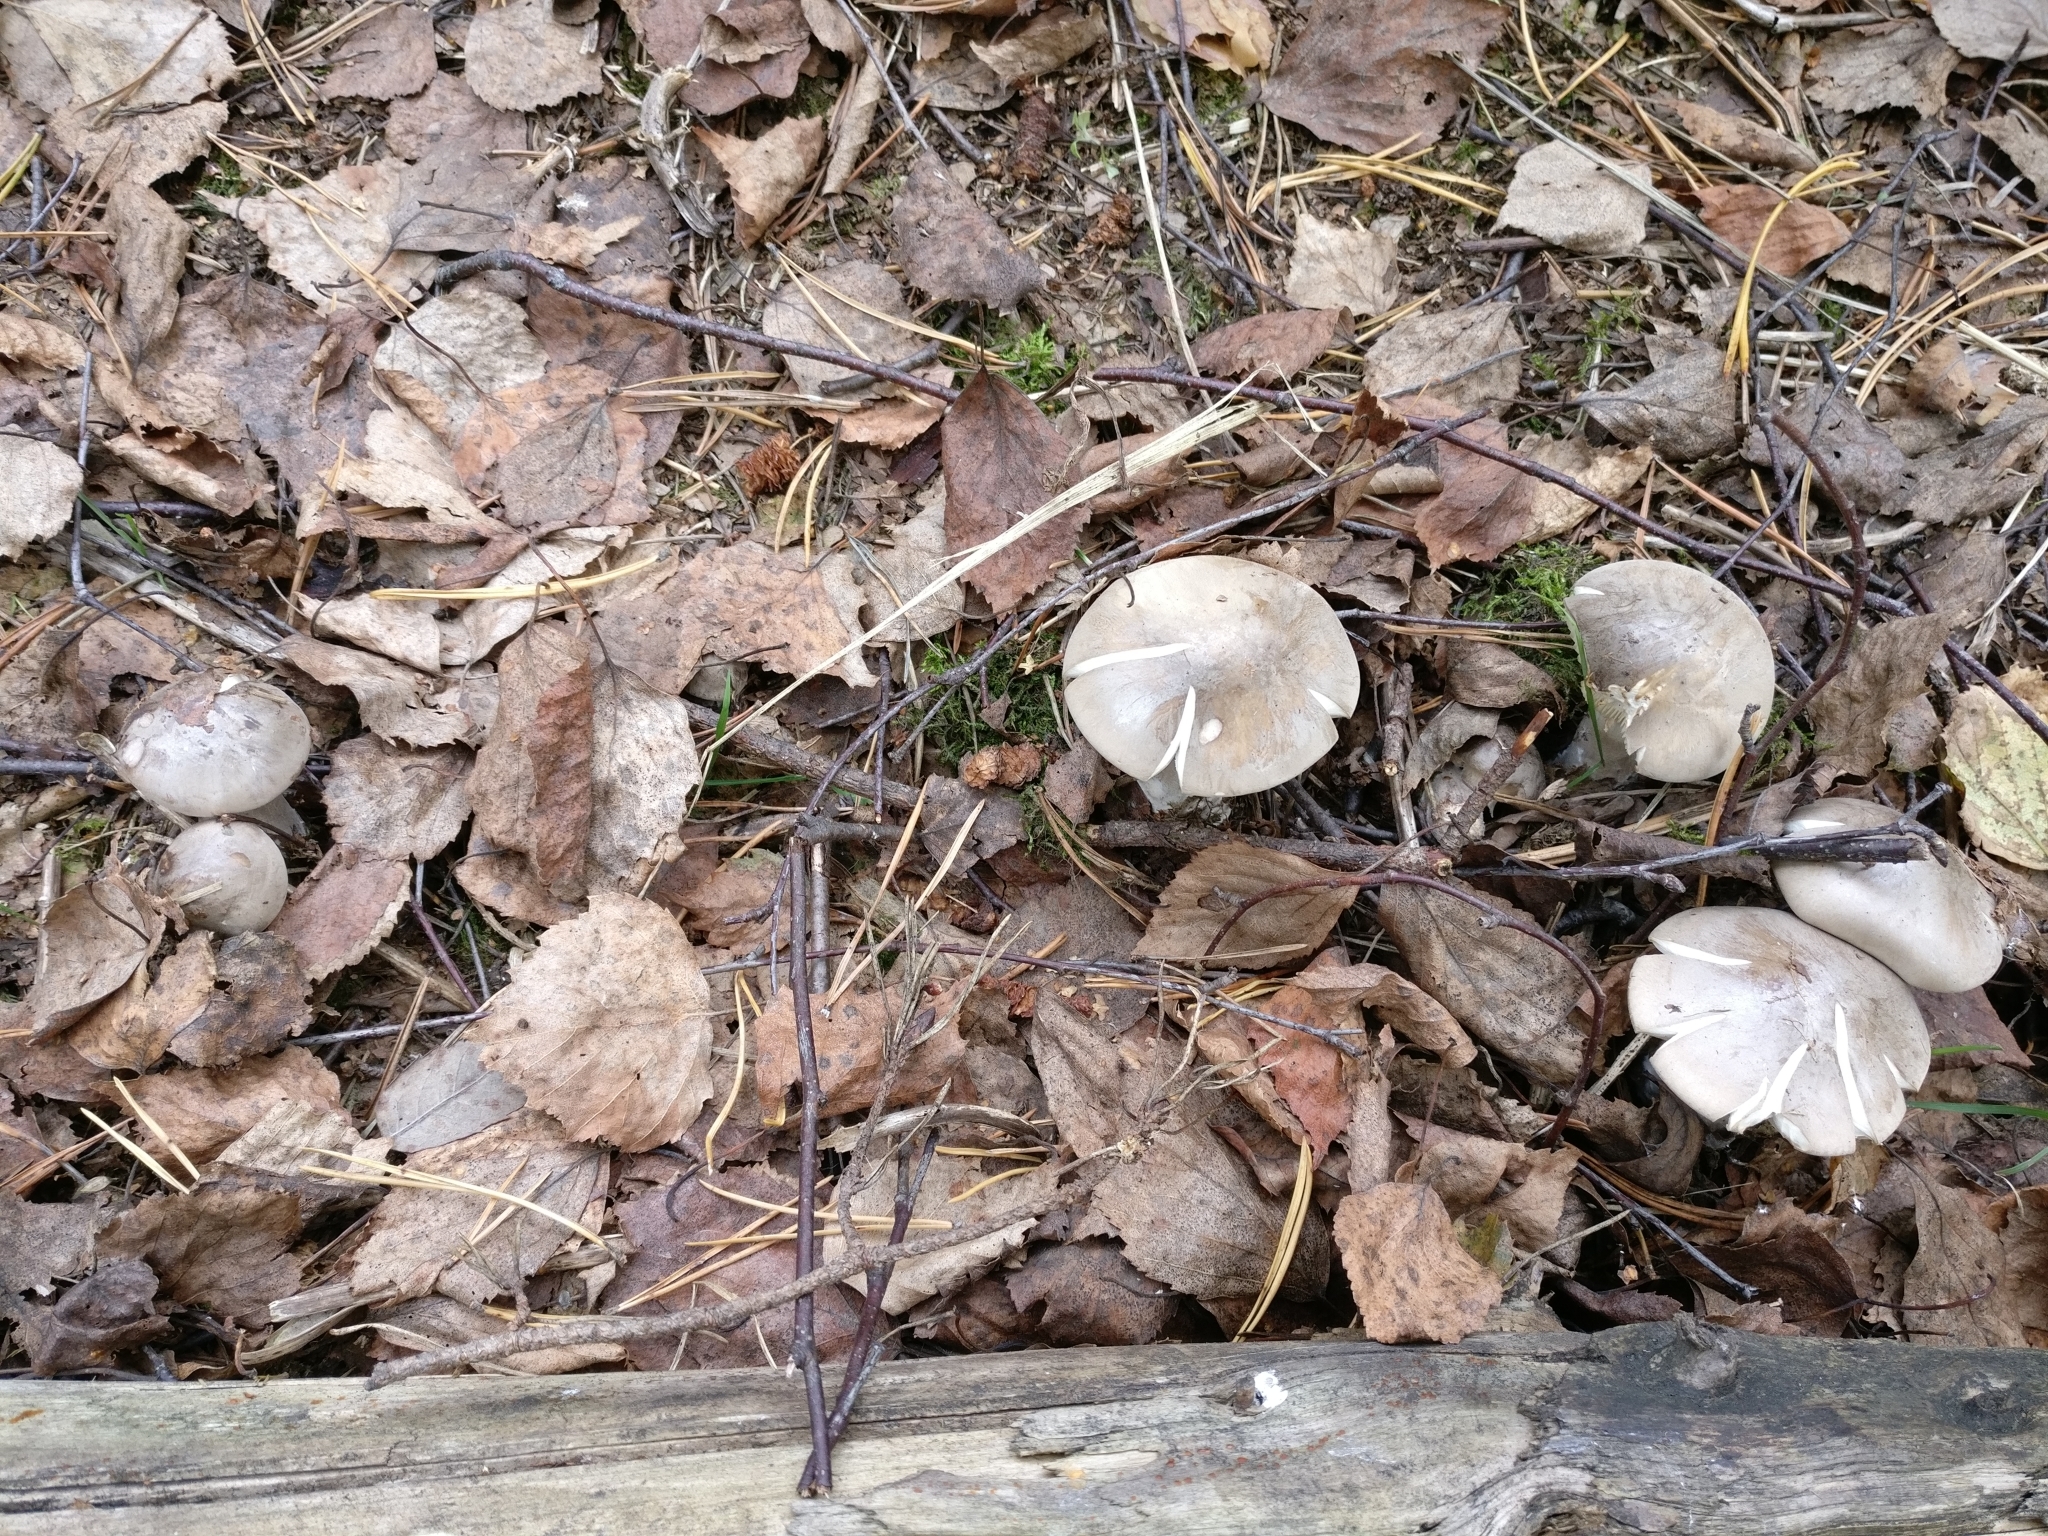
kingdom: Fungi
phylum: Basidiomycota
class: Agaricomycetes
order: Agaricales
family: Tricholomataceae
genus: Clitocybe
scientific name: Clitocybe nebularis
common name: Clouded agaric
